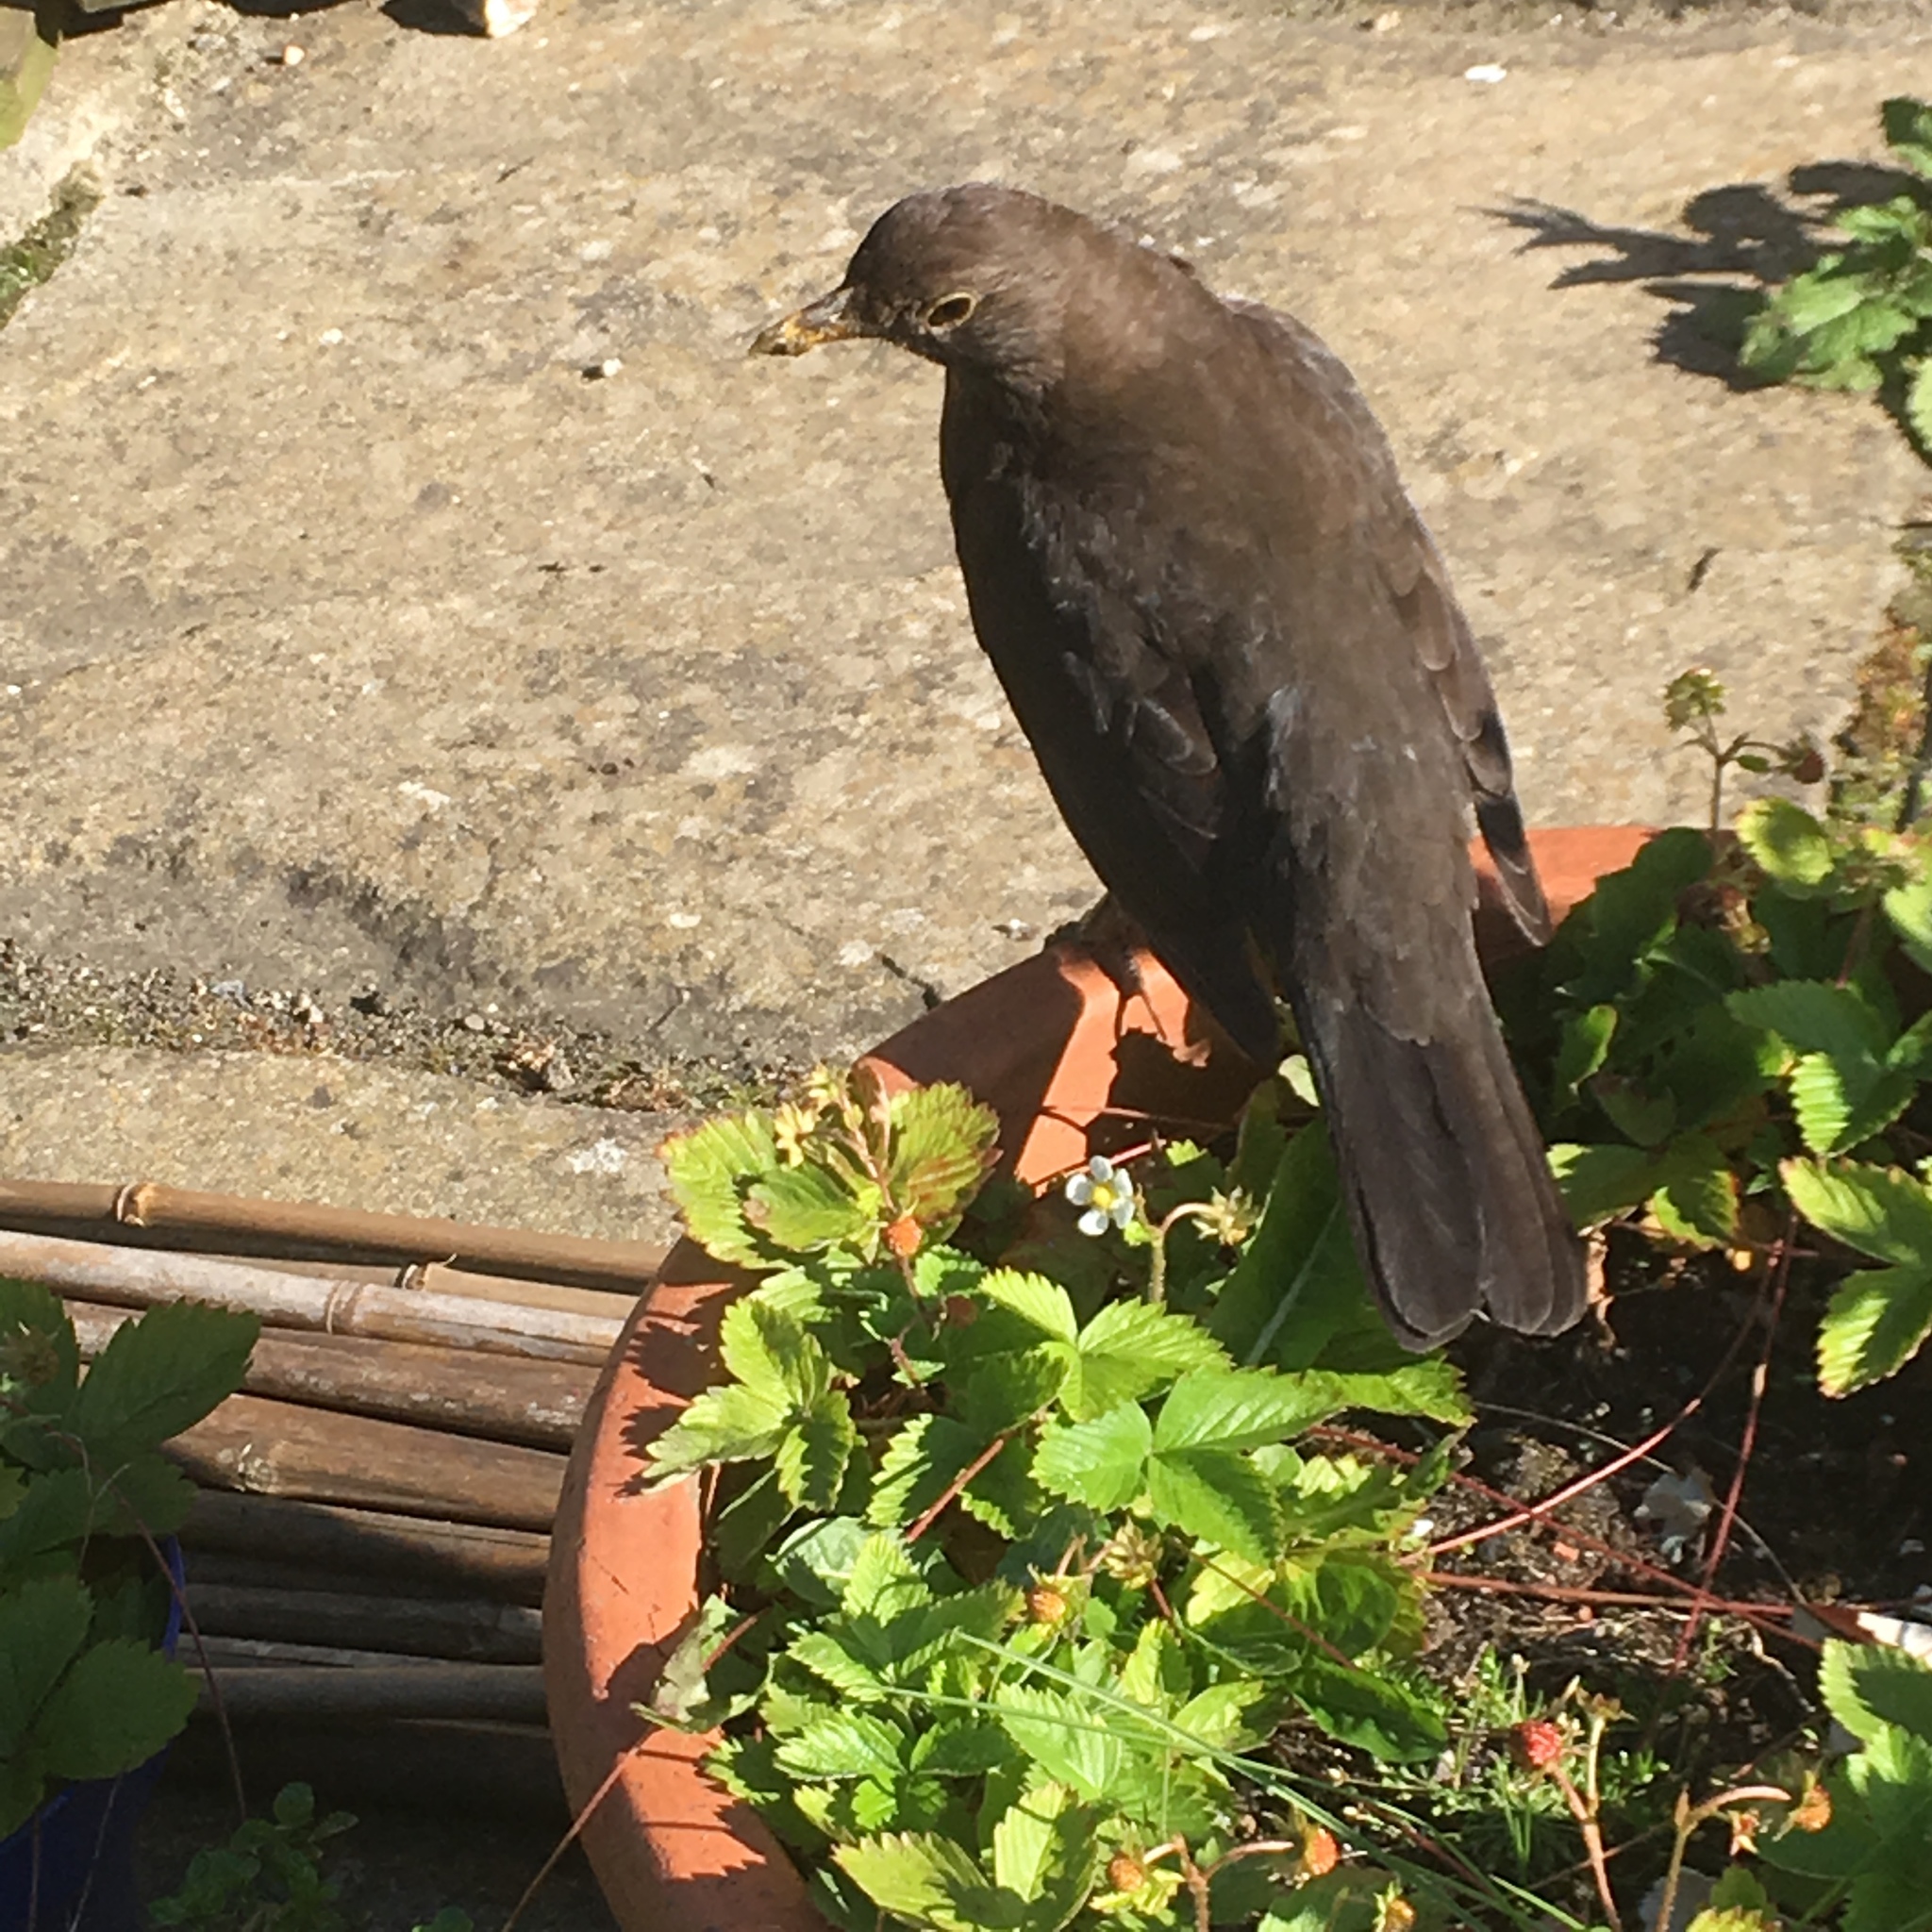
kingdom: Animalia
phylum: Chordata
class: Aves
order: Passeriformes
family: Turdidae
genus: Turdus
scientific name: Turdus merula
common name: Common blackbird
